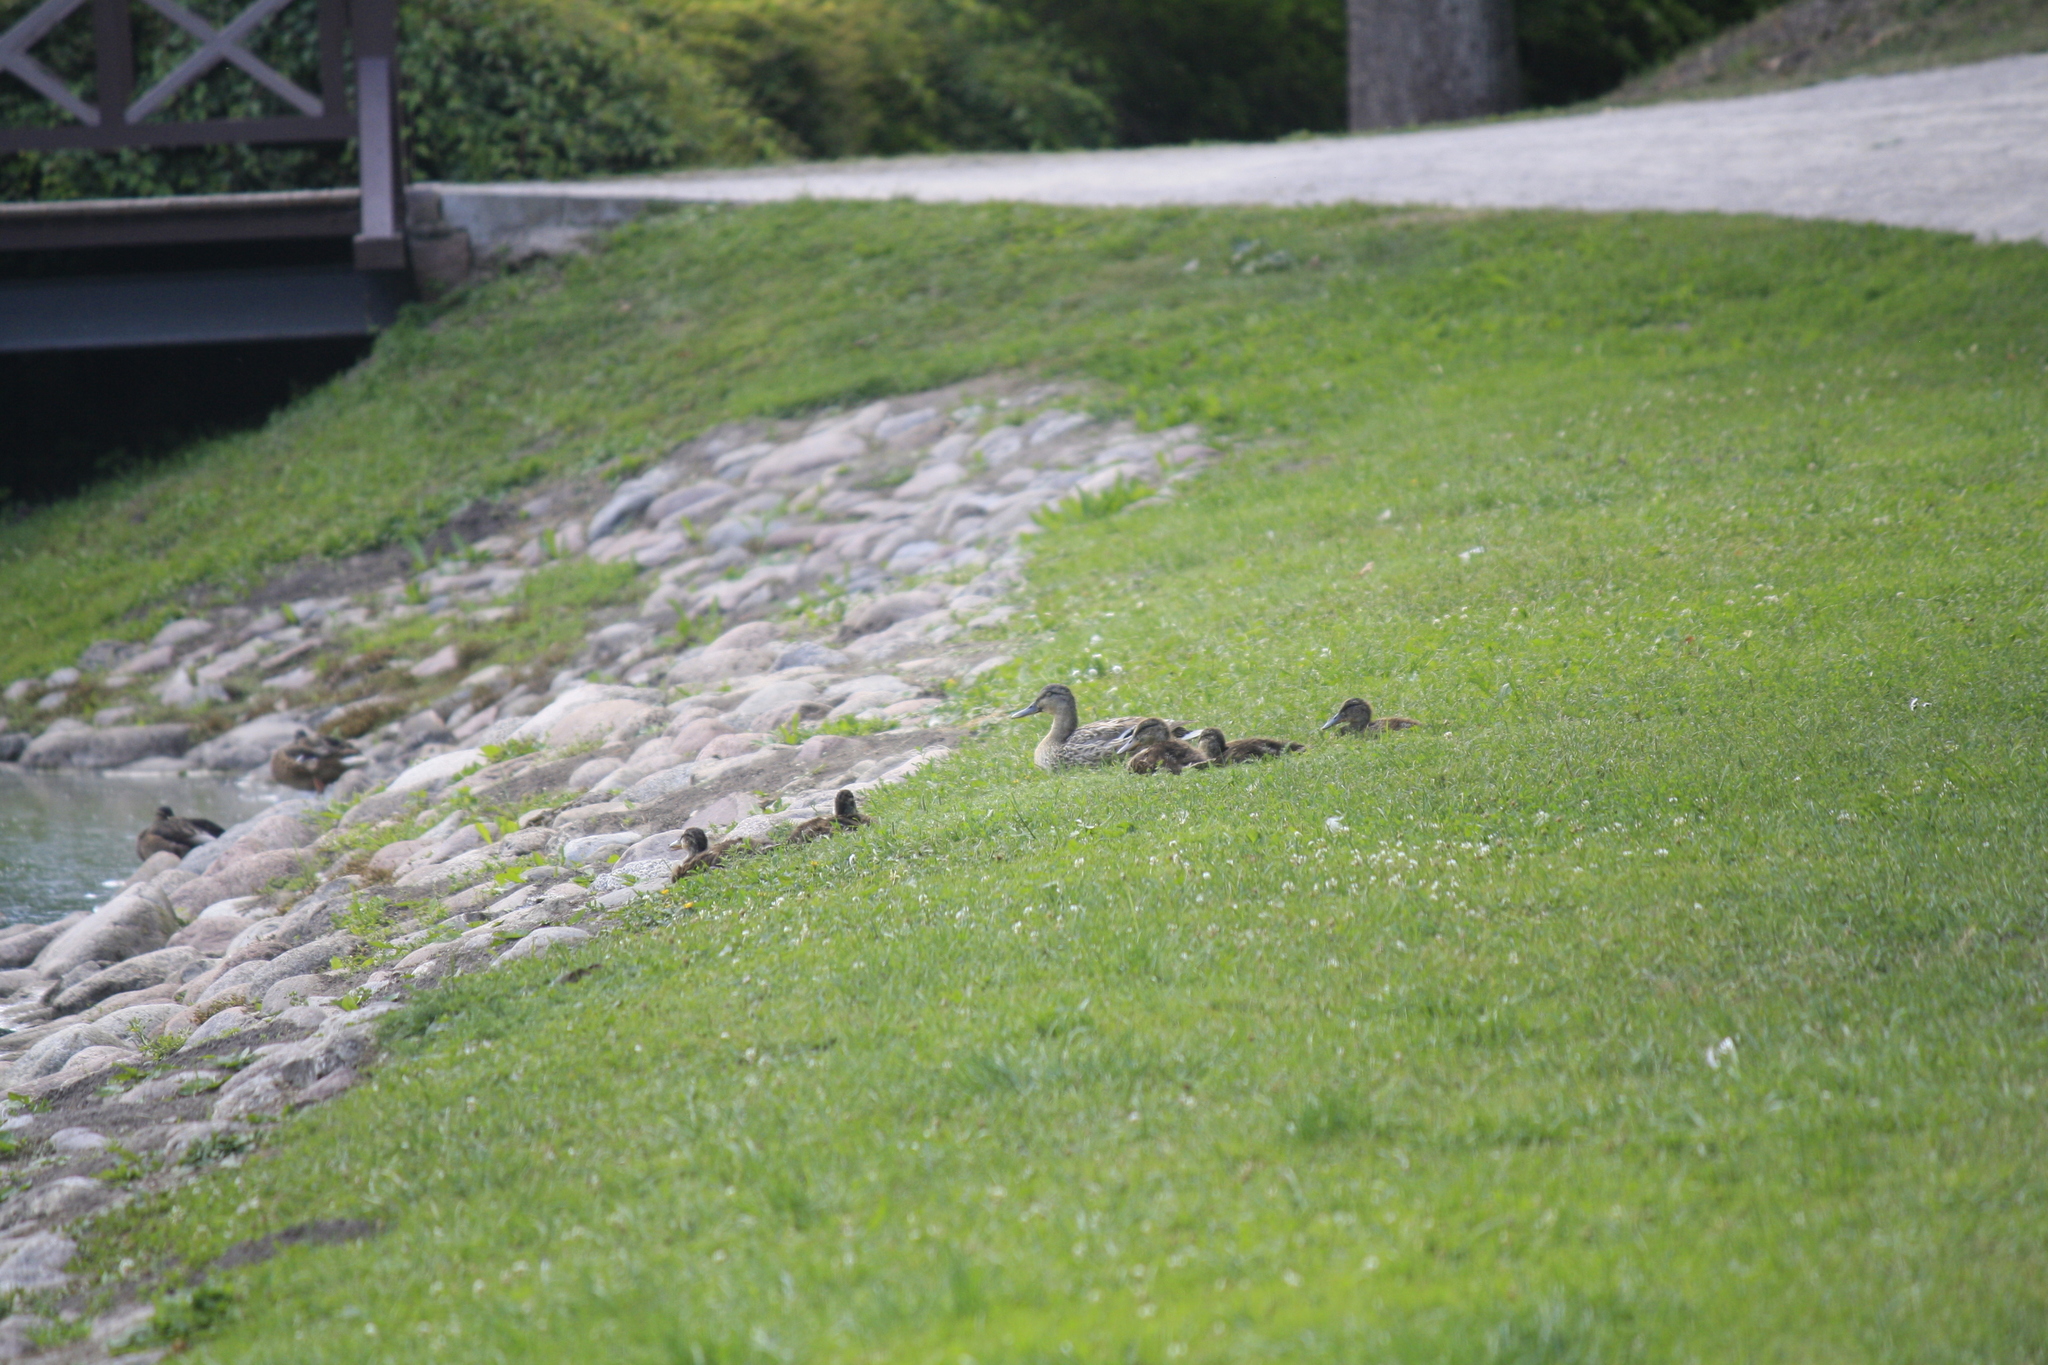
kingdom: Animalia
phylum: Chordata
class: Aves
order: Anseriformes
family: Anatidae
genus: Anas
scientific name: Anas platyrhynchos
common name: Mallard
